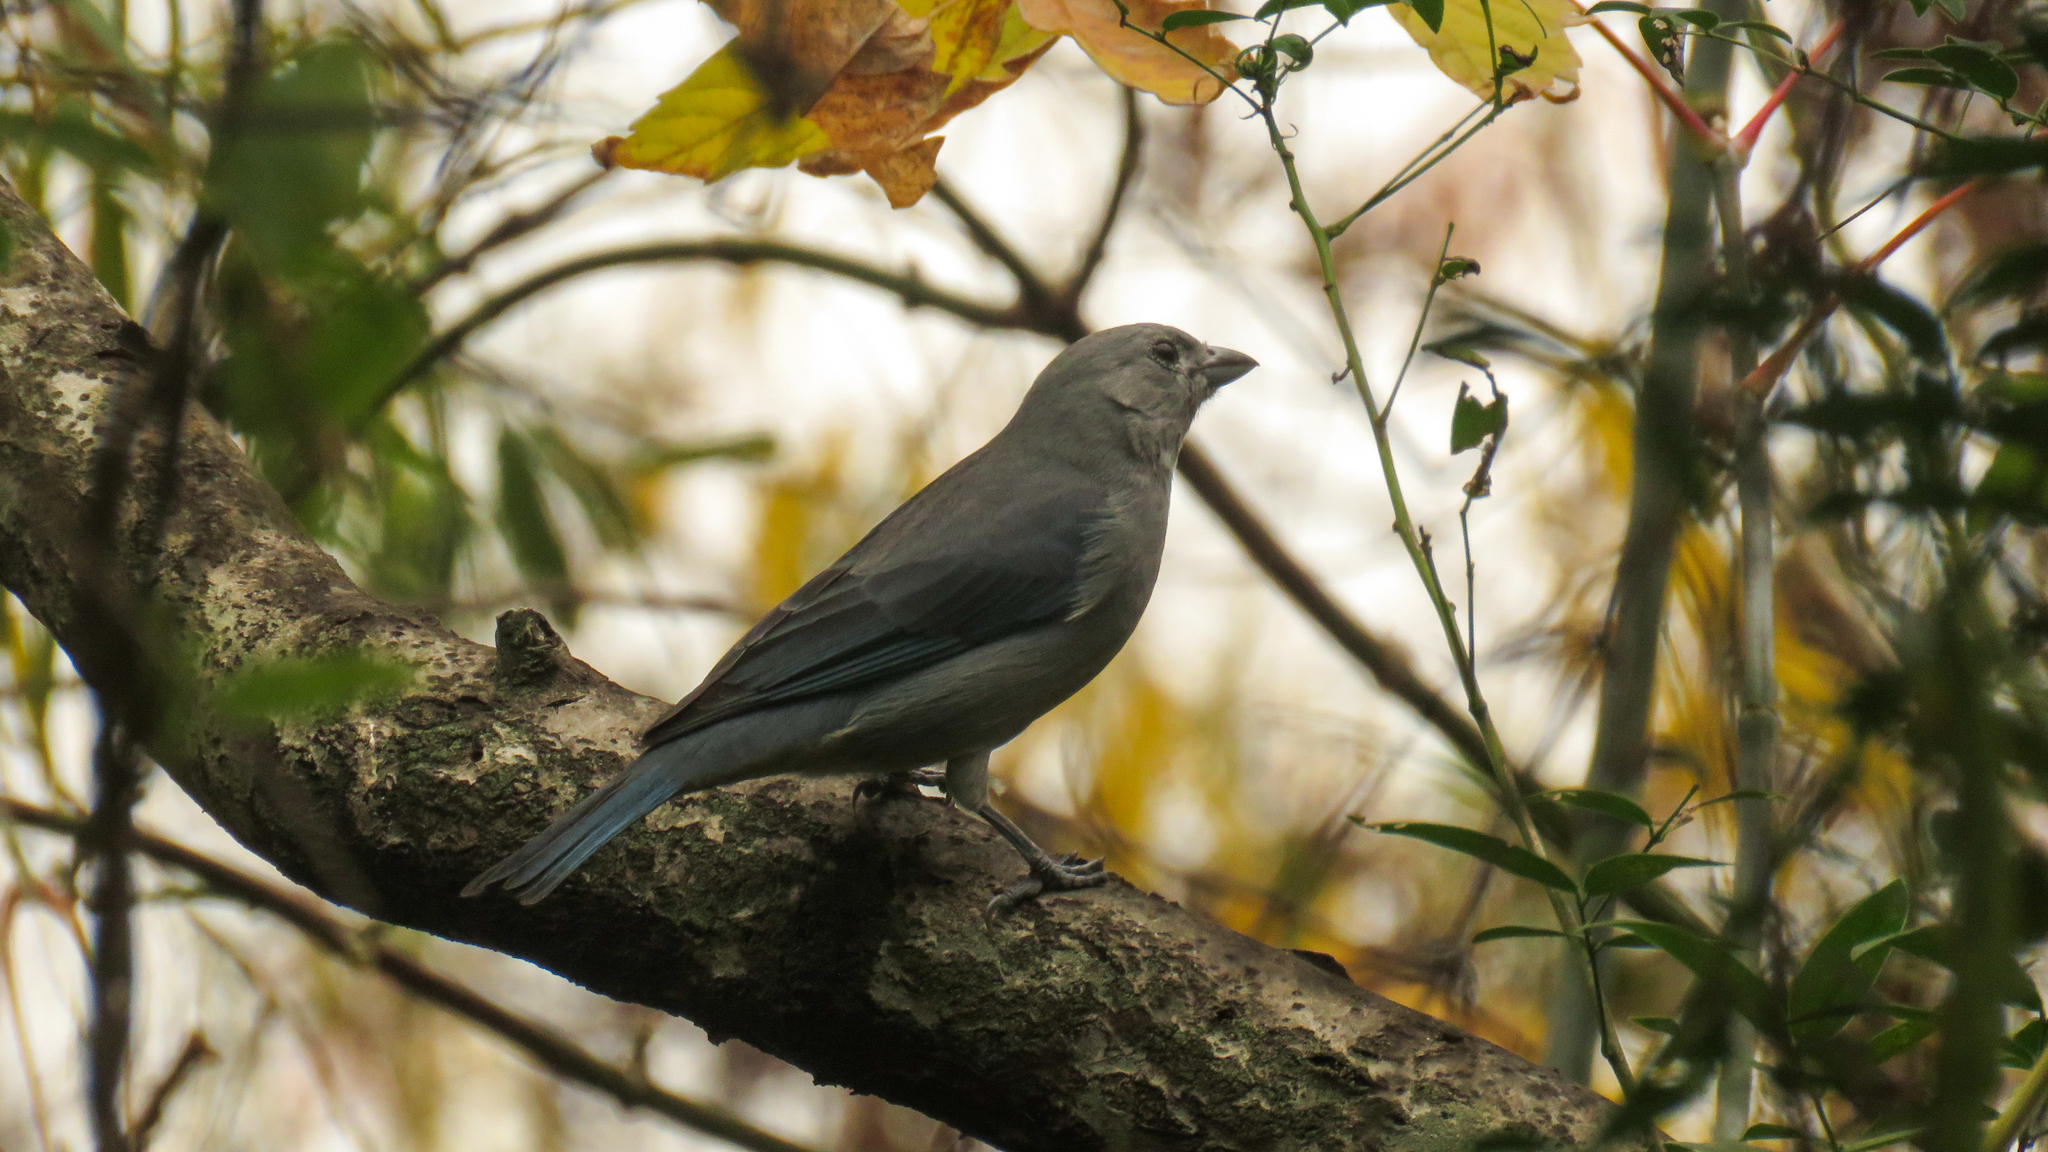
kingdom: Animalia
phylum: Chordata
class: Aves
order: Passeriformes
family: Thraupidae
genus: Thraupis
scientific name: Thraupis sayaca
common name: Sayaca tanager
